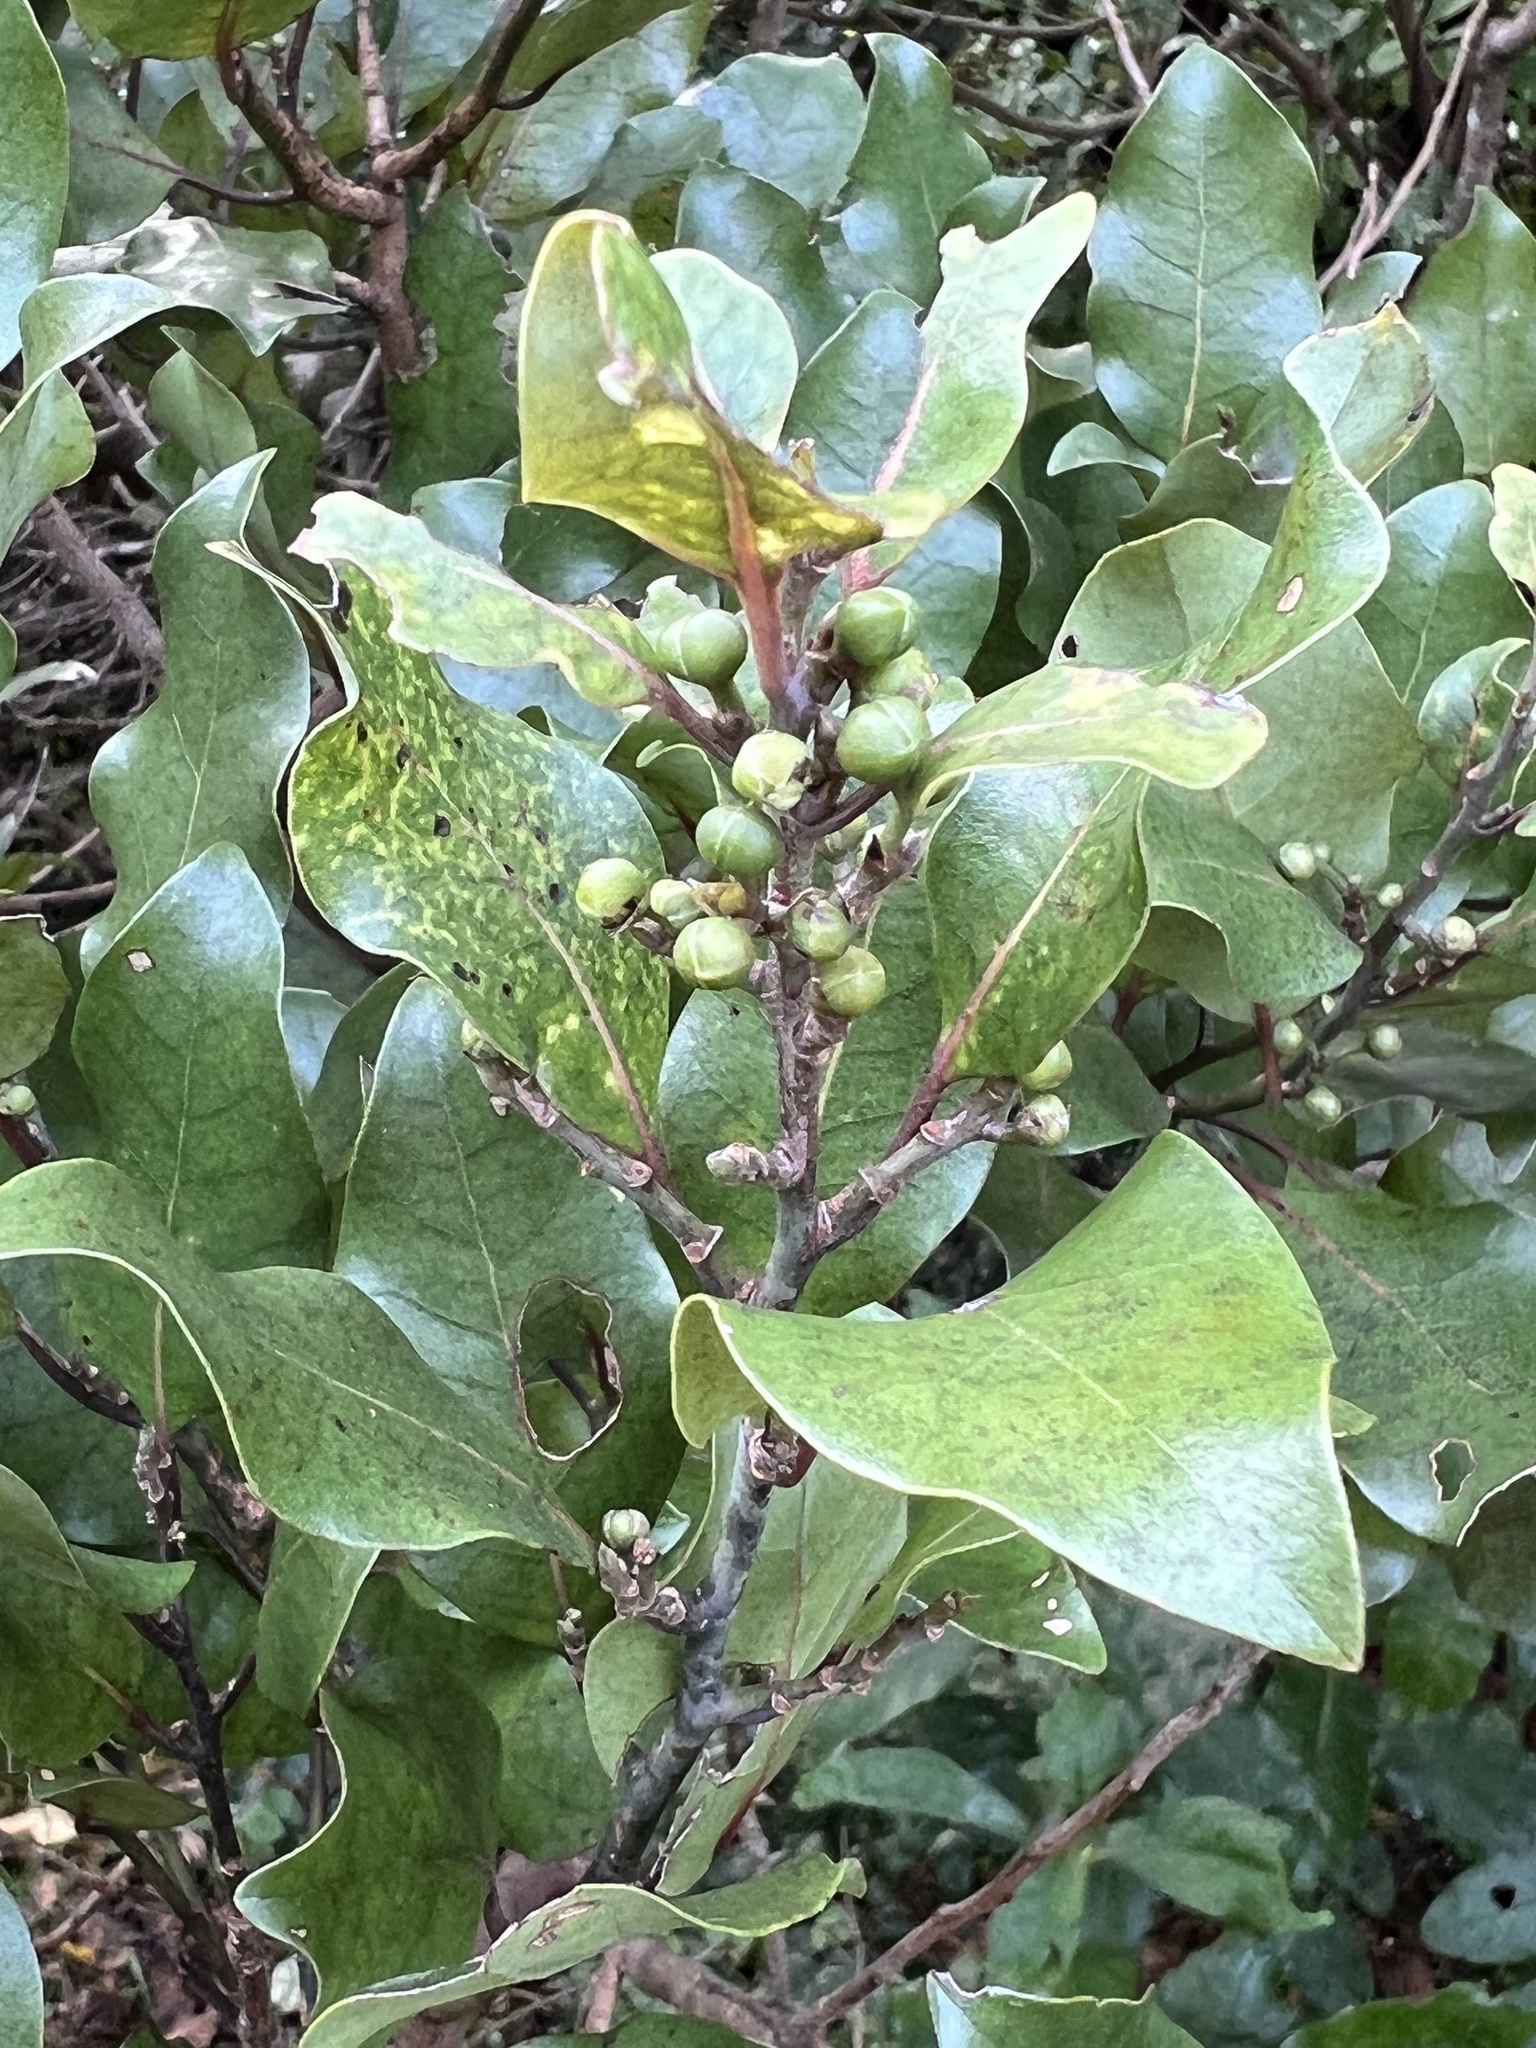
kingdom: Plantae
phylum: Tracheophyta
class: Magnoliopsida
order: Laurales
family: Lauraceae
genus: Litsea
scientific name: Litsea calicaris
